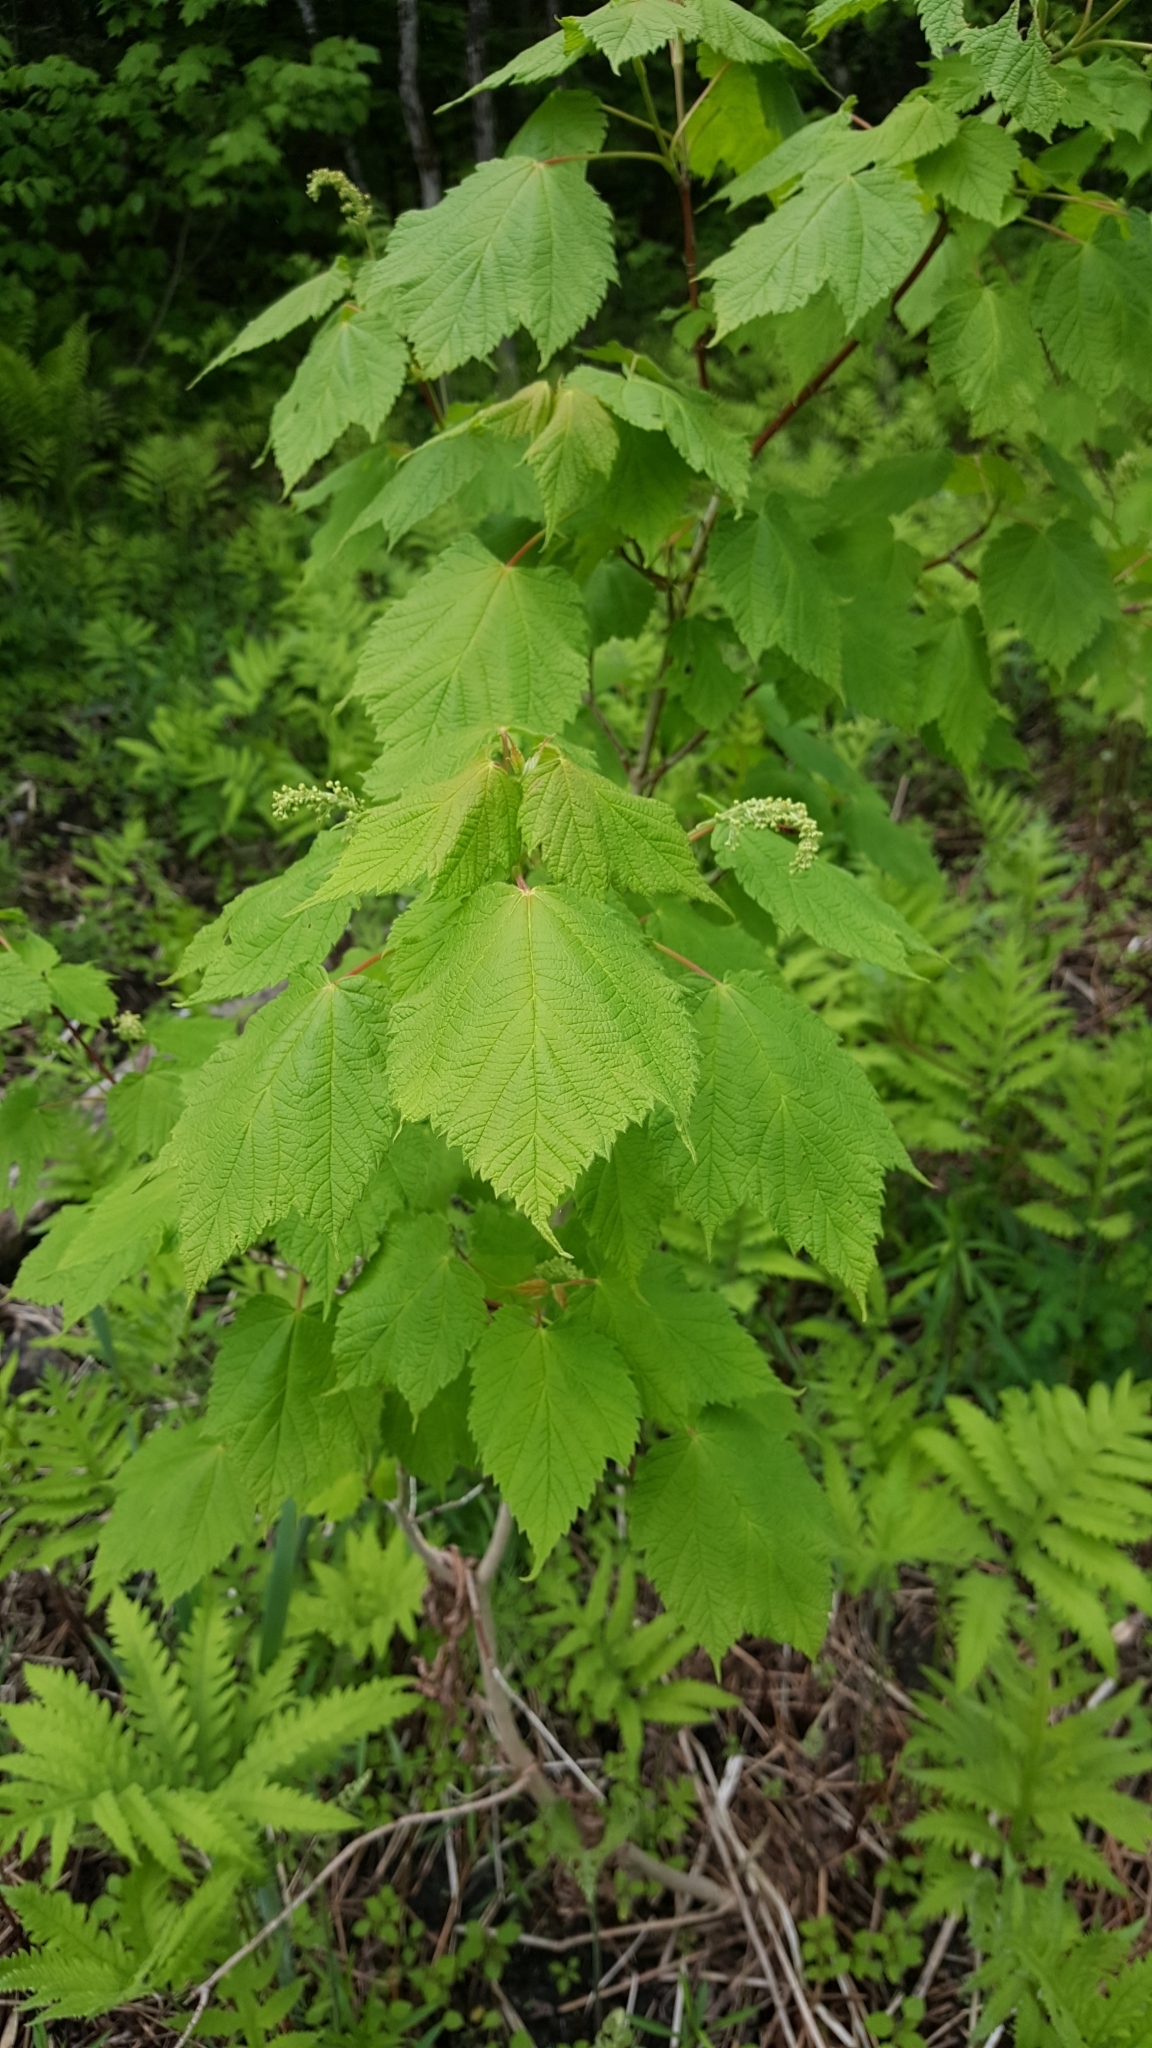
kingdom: Plantae
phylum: Tracheophyta
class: Magnoliopsida
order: Sapindales
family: Sapindaceae
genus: Acer
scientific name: Acer spicatum
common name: Mountain maple
